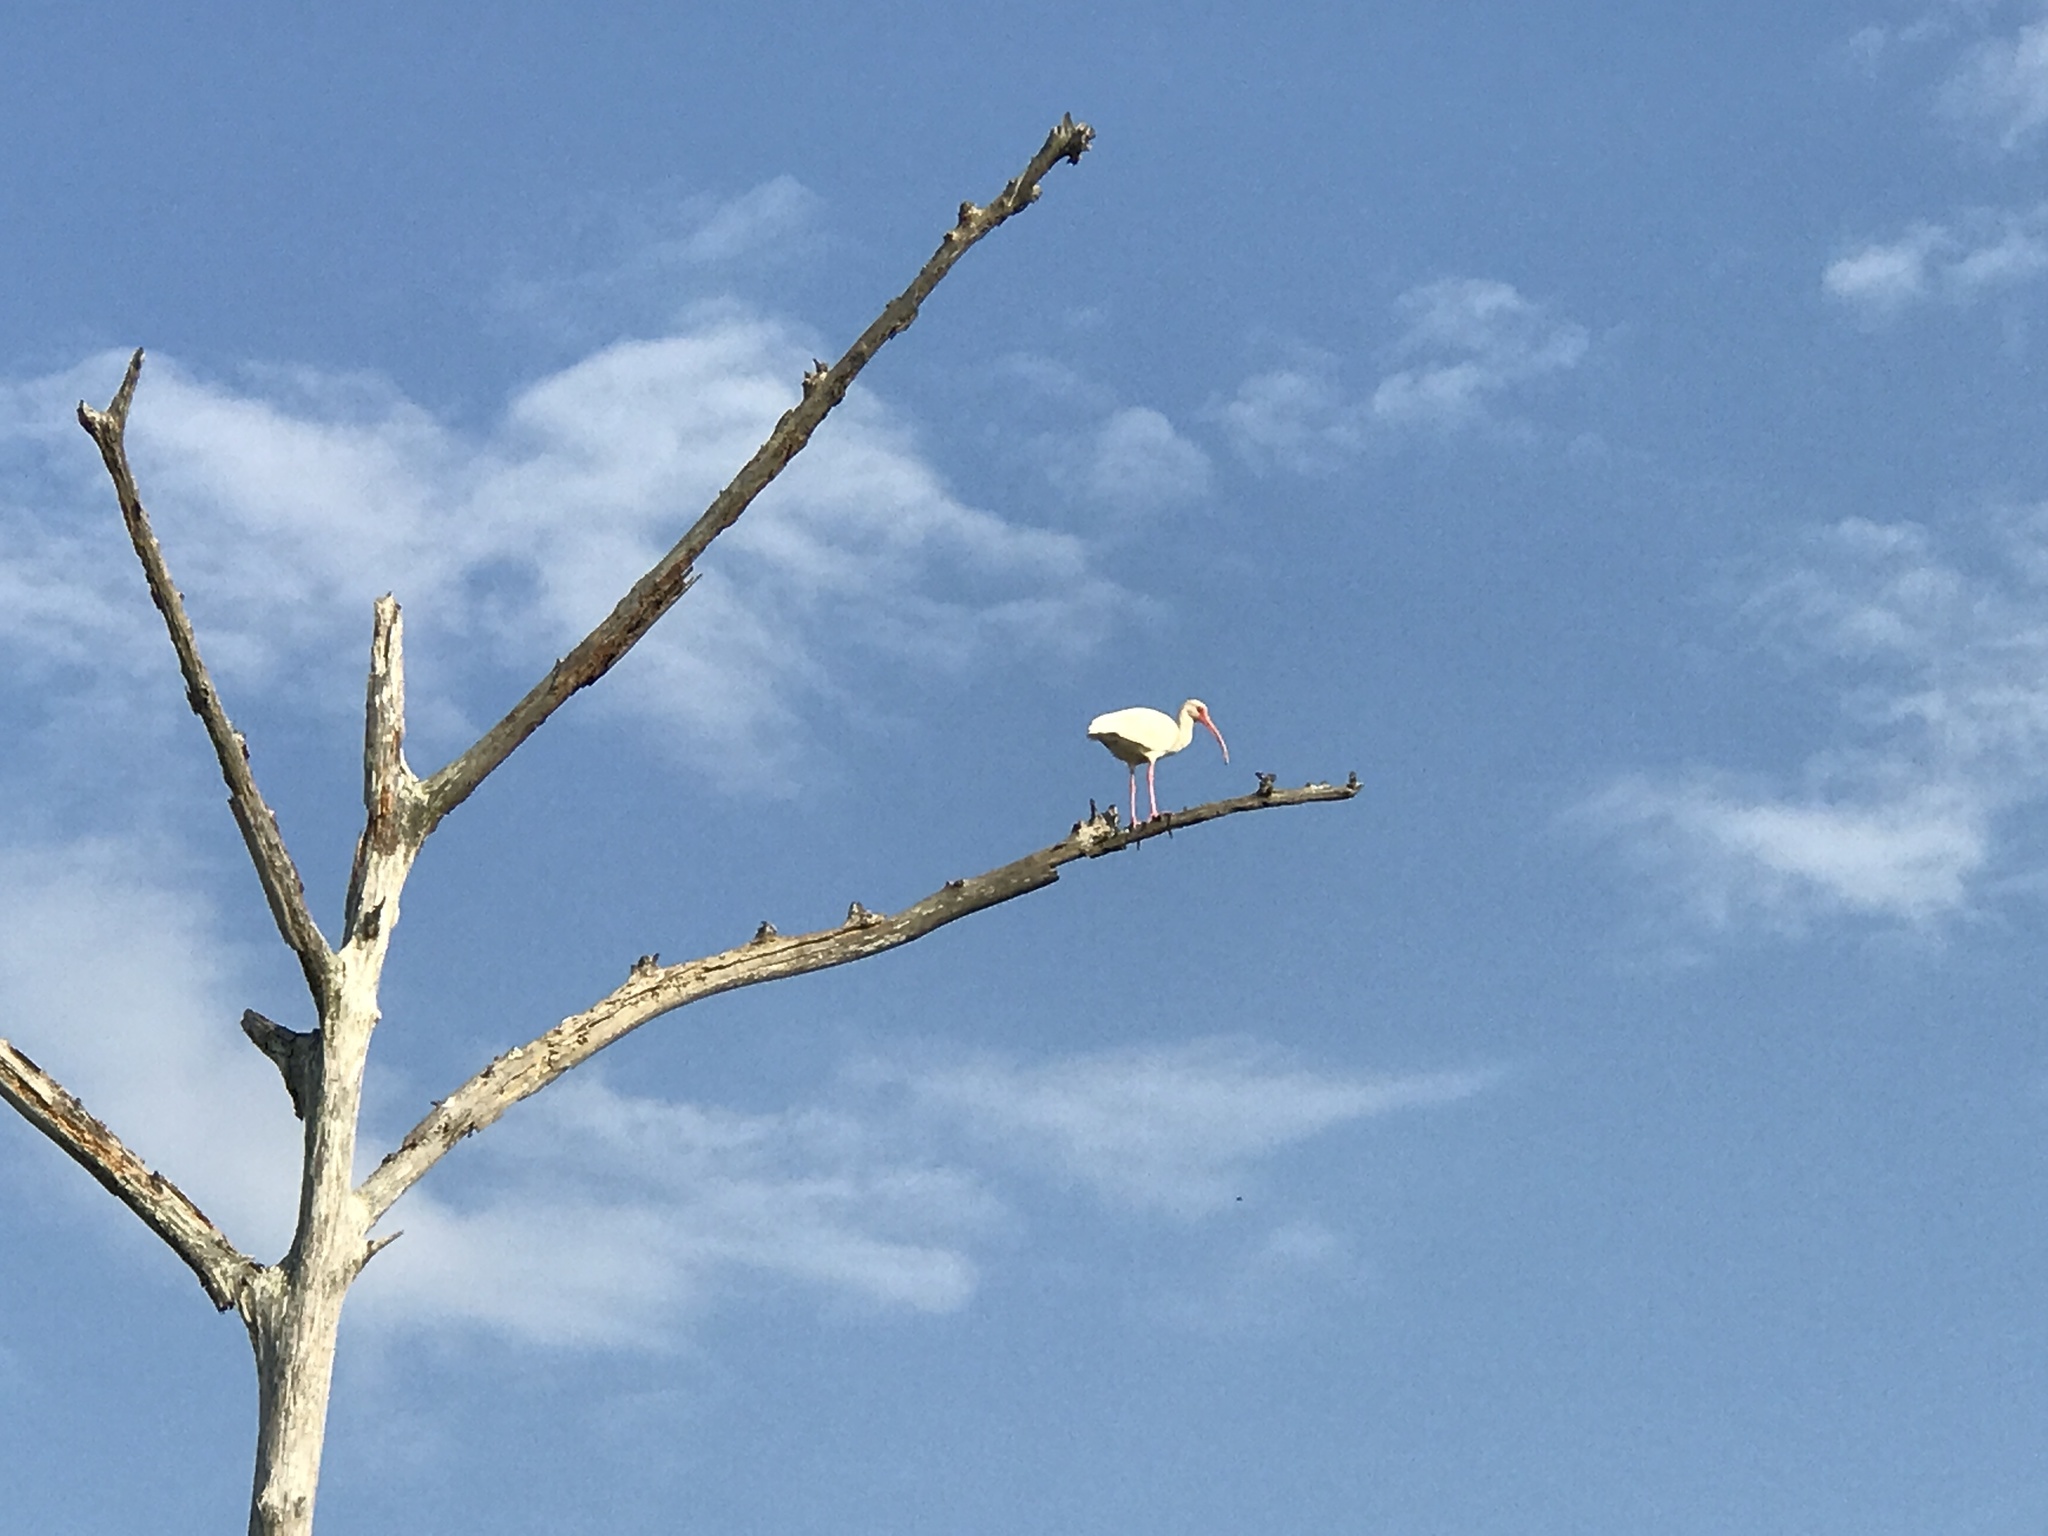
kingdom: Animalia
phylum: Chordata
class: Aves
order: Pelecaniformes
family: Threskiornithidae
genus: Eudocimus
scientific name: Eudocimus albus
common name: White ibis
